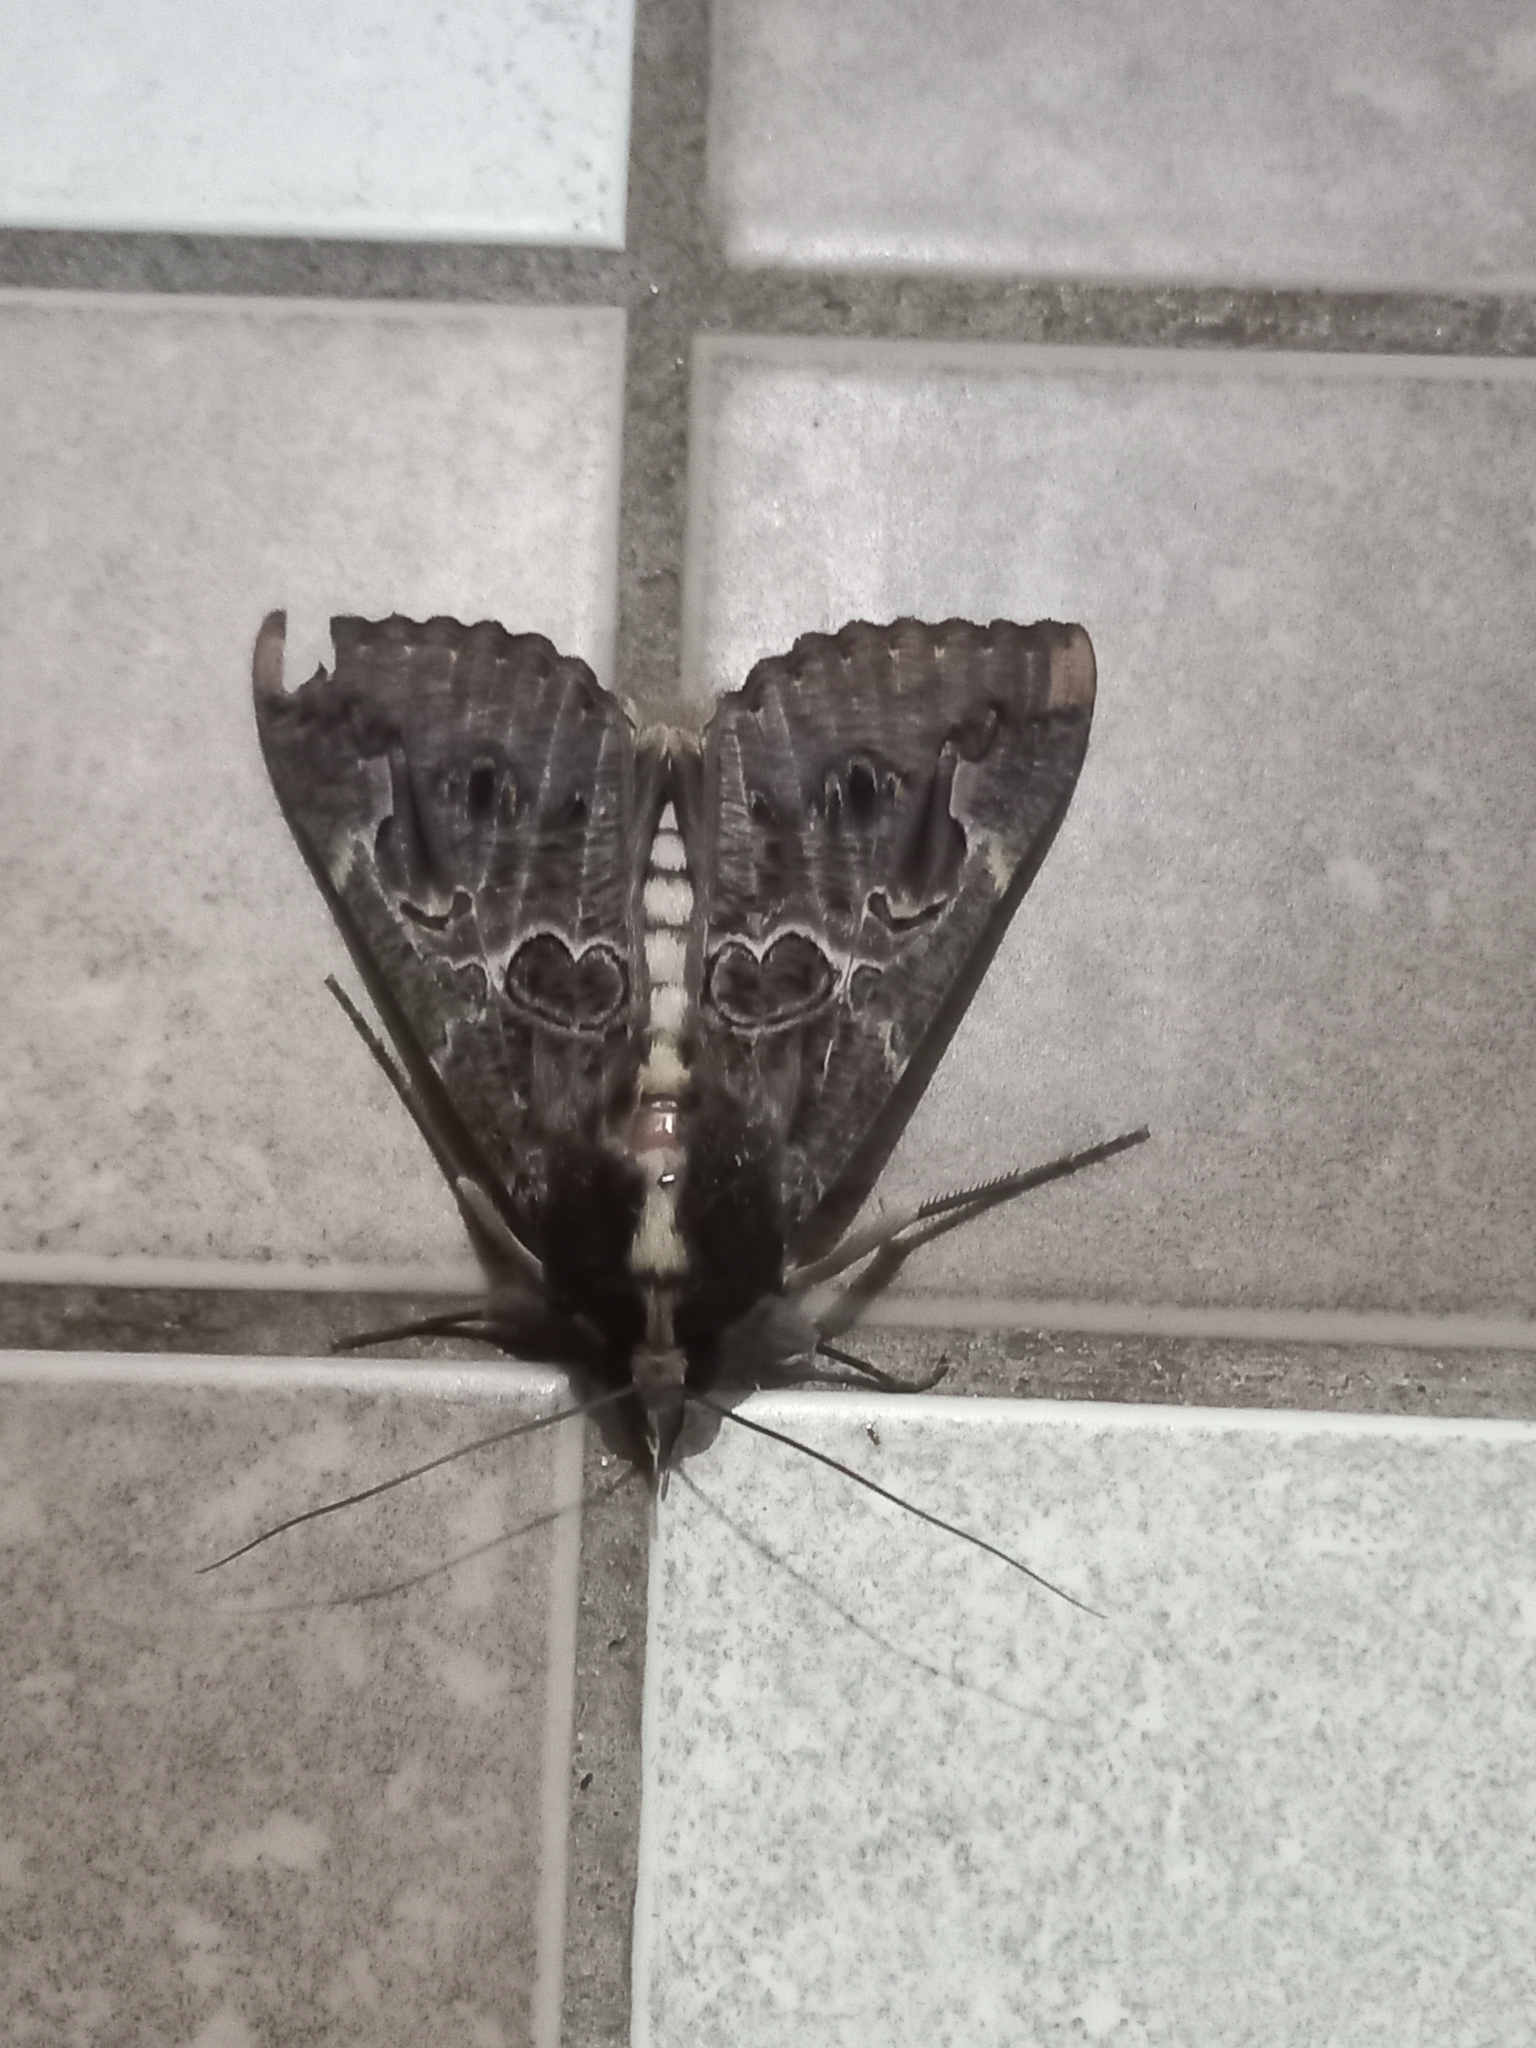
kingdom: Animalia
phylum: Arthropoda
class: Insecta
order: Lepidoptera
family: Erebidae
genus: Sphingomorpha
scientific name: Sphingomorpha chlorea
